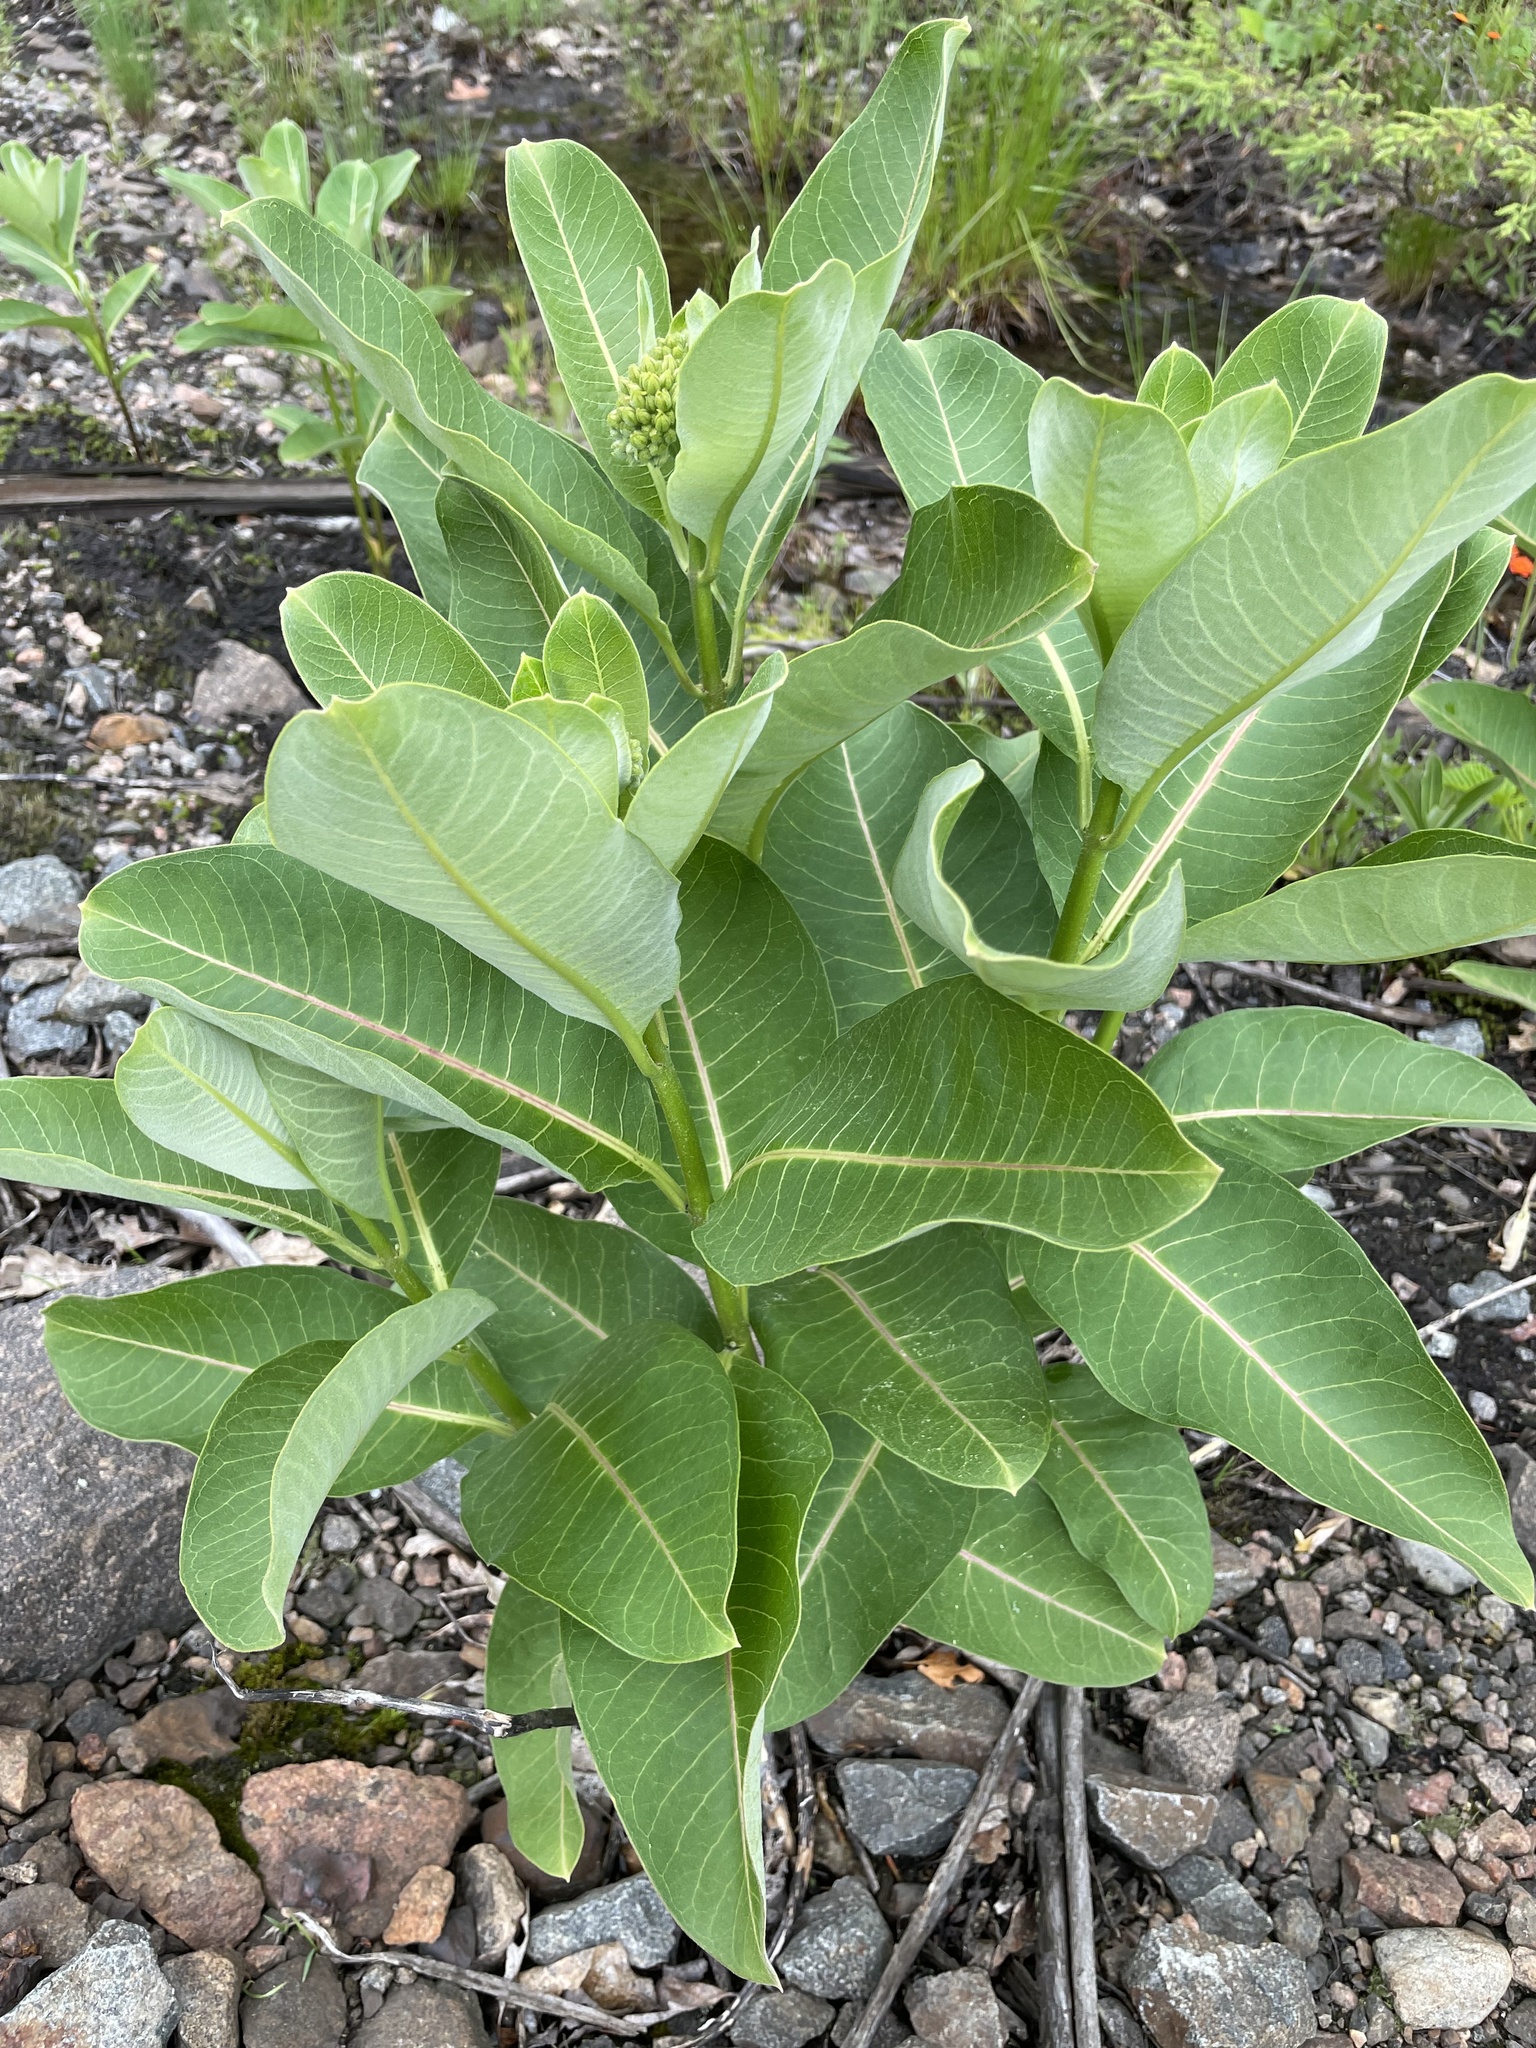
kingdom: Plantae
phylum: Tracheophyta
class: Magnoliopsida
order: Gentianales
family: Apocynaceae
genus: Asclepias
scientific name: Asclepias syriaca
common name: Common milkweed
